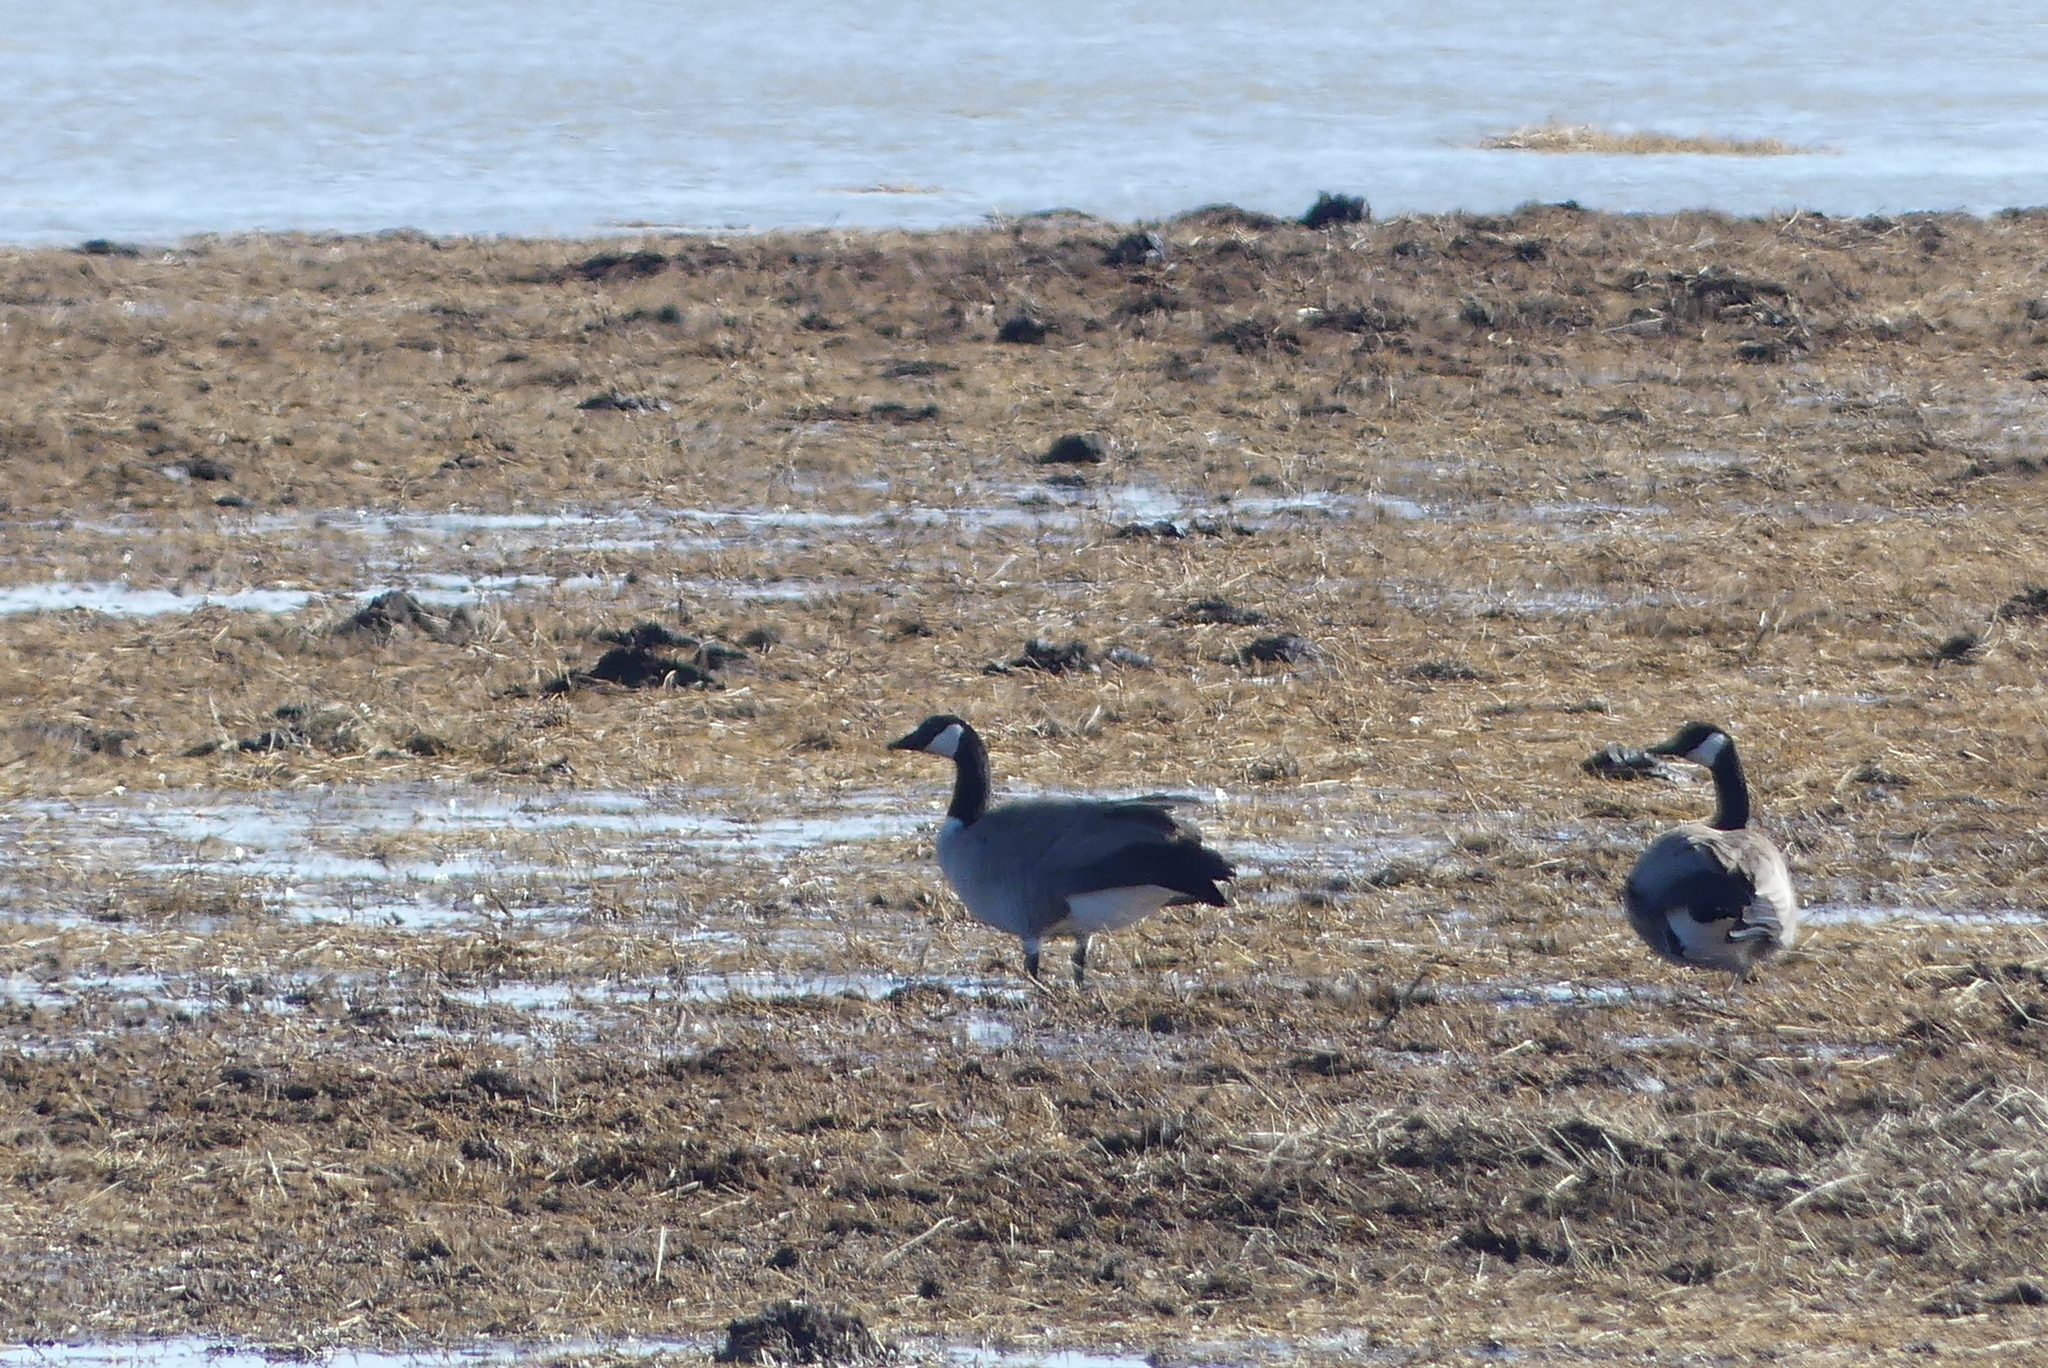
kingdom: Animalia
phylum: Chordata
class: Aves
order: Anseriformes
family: Anatidae
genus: Branta
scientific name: Branta canadensis
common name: Canada goose
